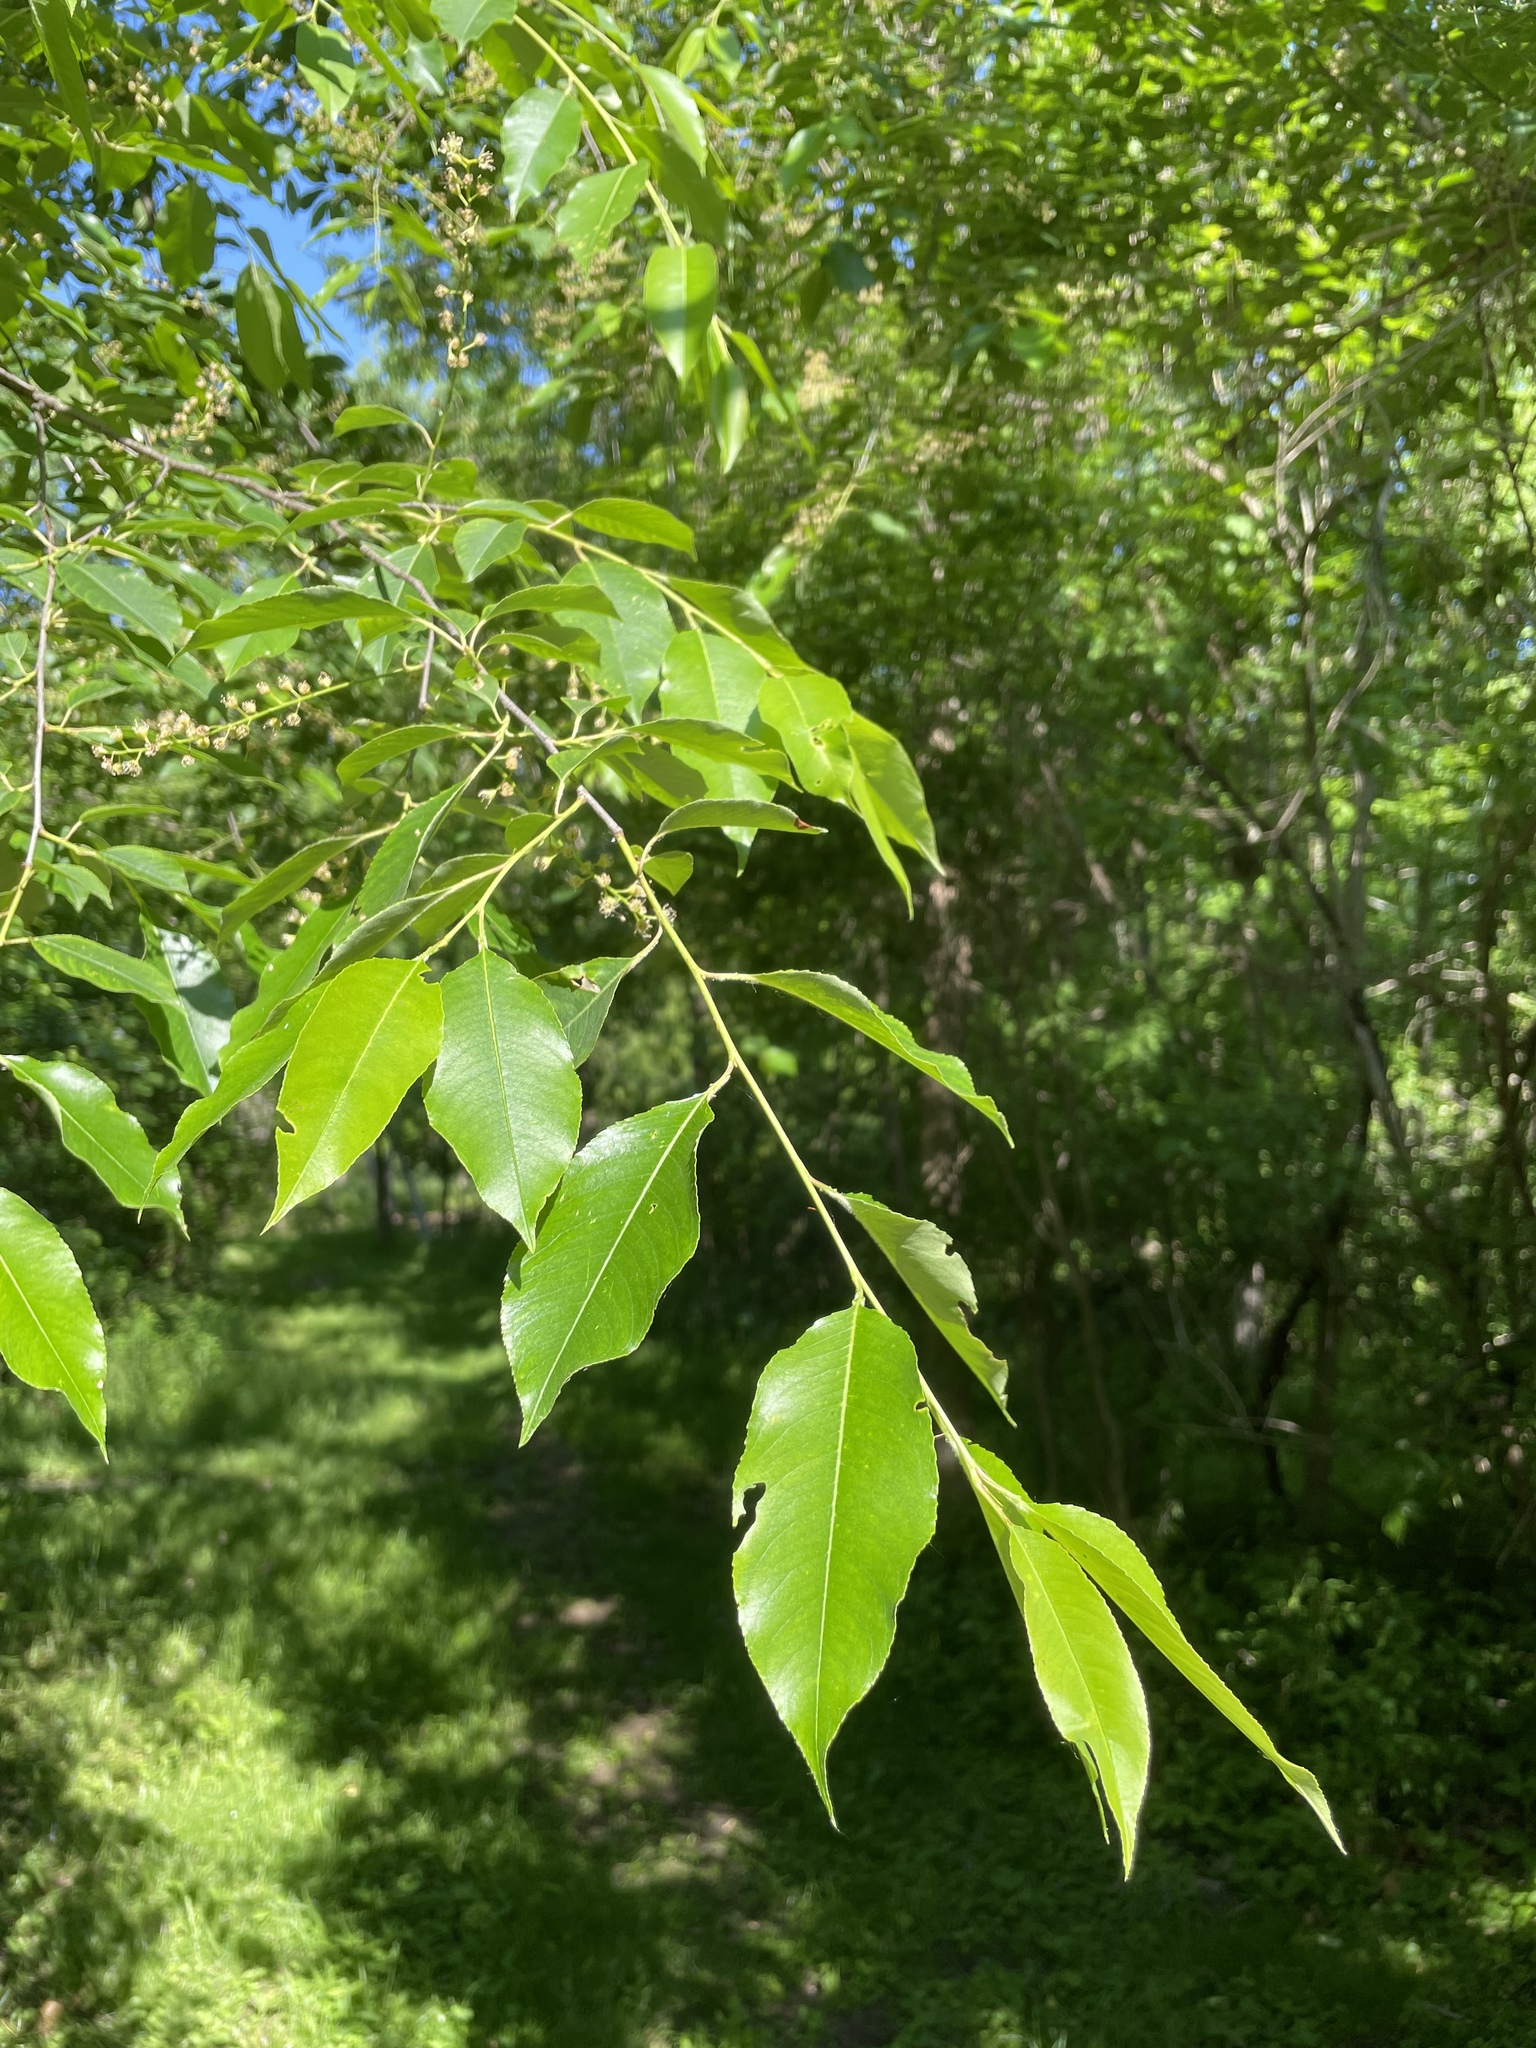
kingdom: Plantae
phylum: Tracheophyta
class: Magnoliopsida
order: Rosales
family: Rosaceae
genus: Prunus
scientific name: Prunus serotina
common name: Black cherry
